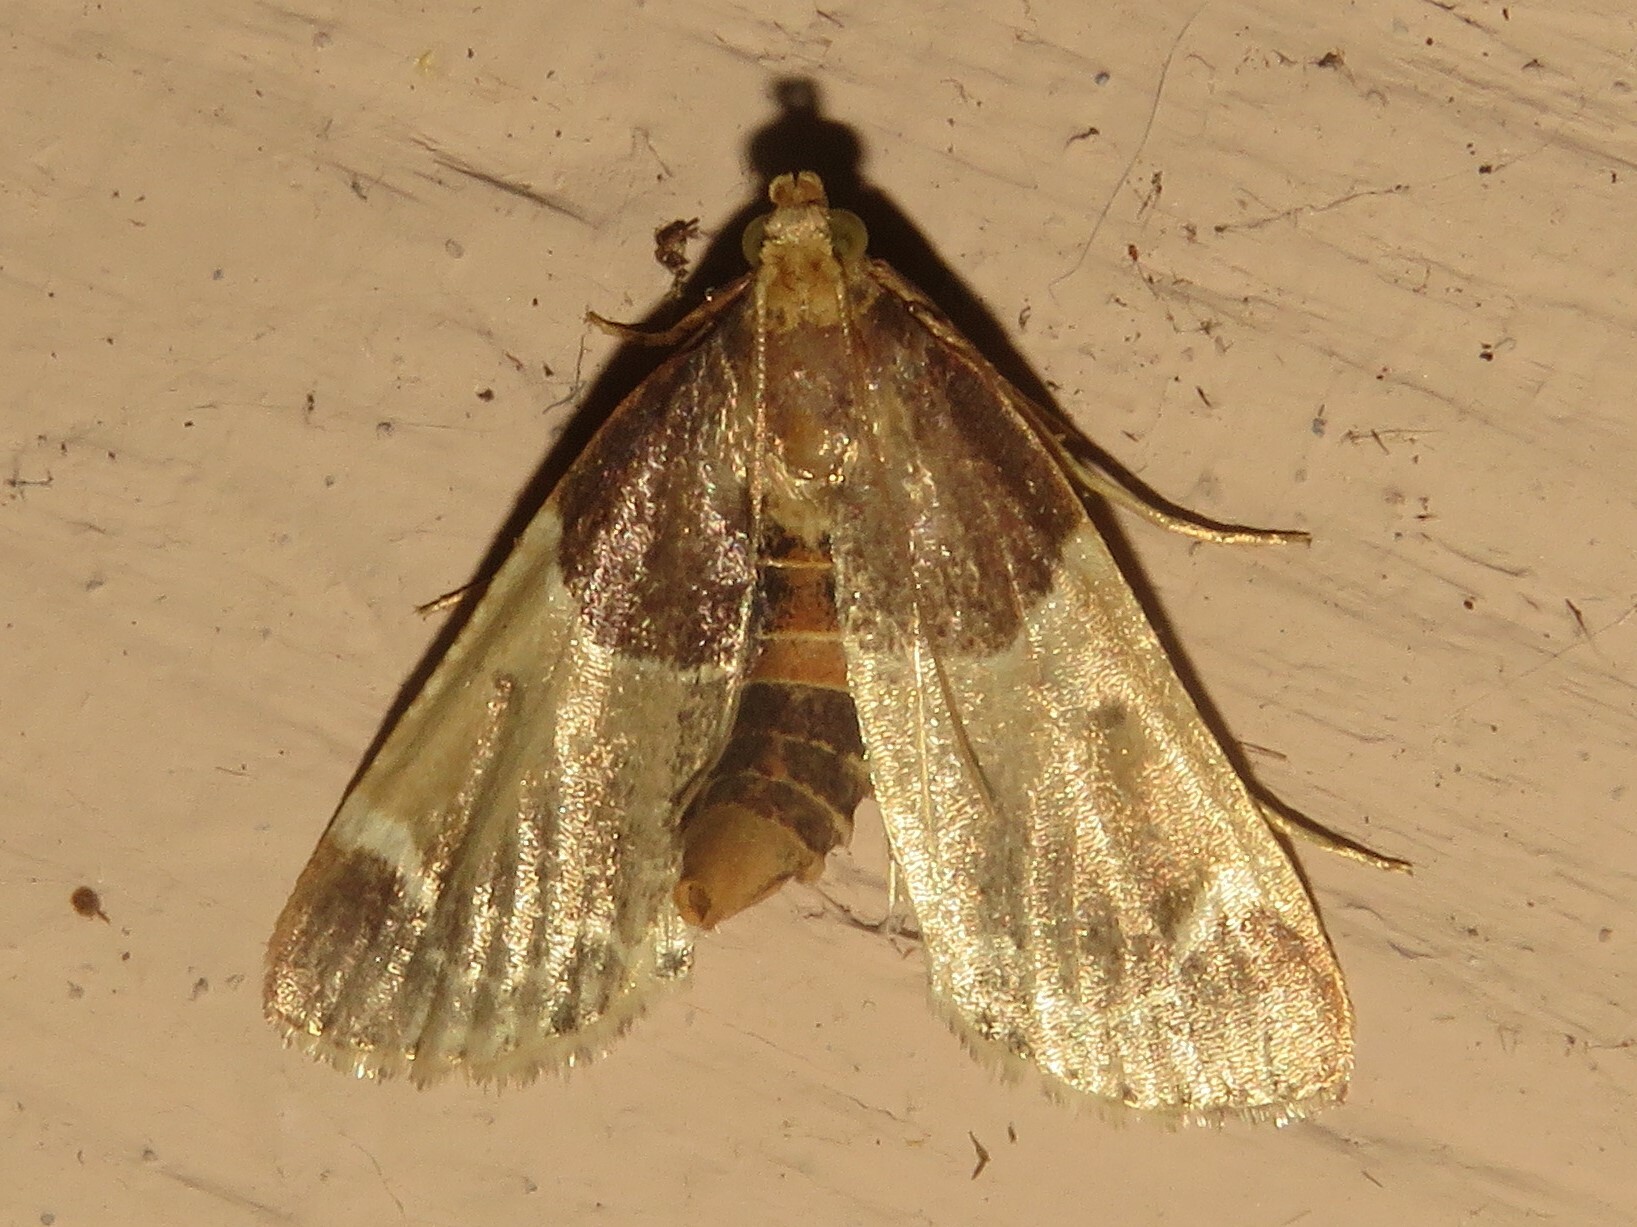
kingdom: Animalia
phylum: Arthropoda
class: Insecta
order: Lepidoptera
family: Pyralidae
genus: Pyralis
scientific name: Pyralis farinalis
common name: Meal moth
